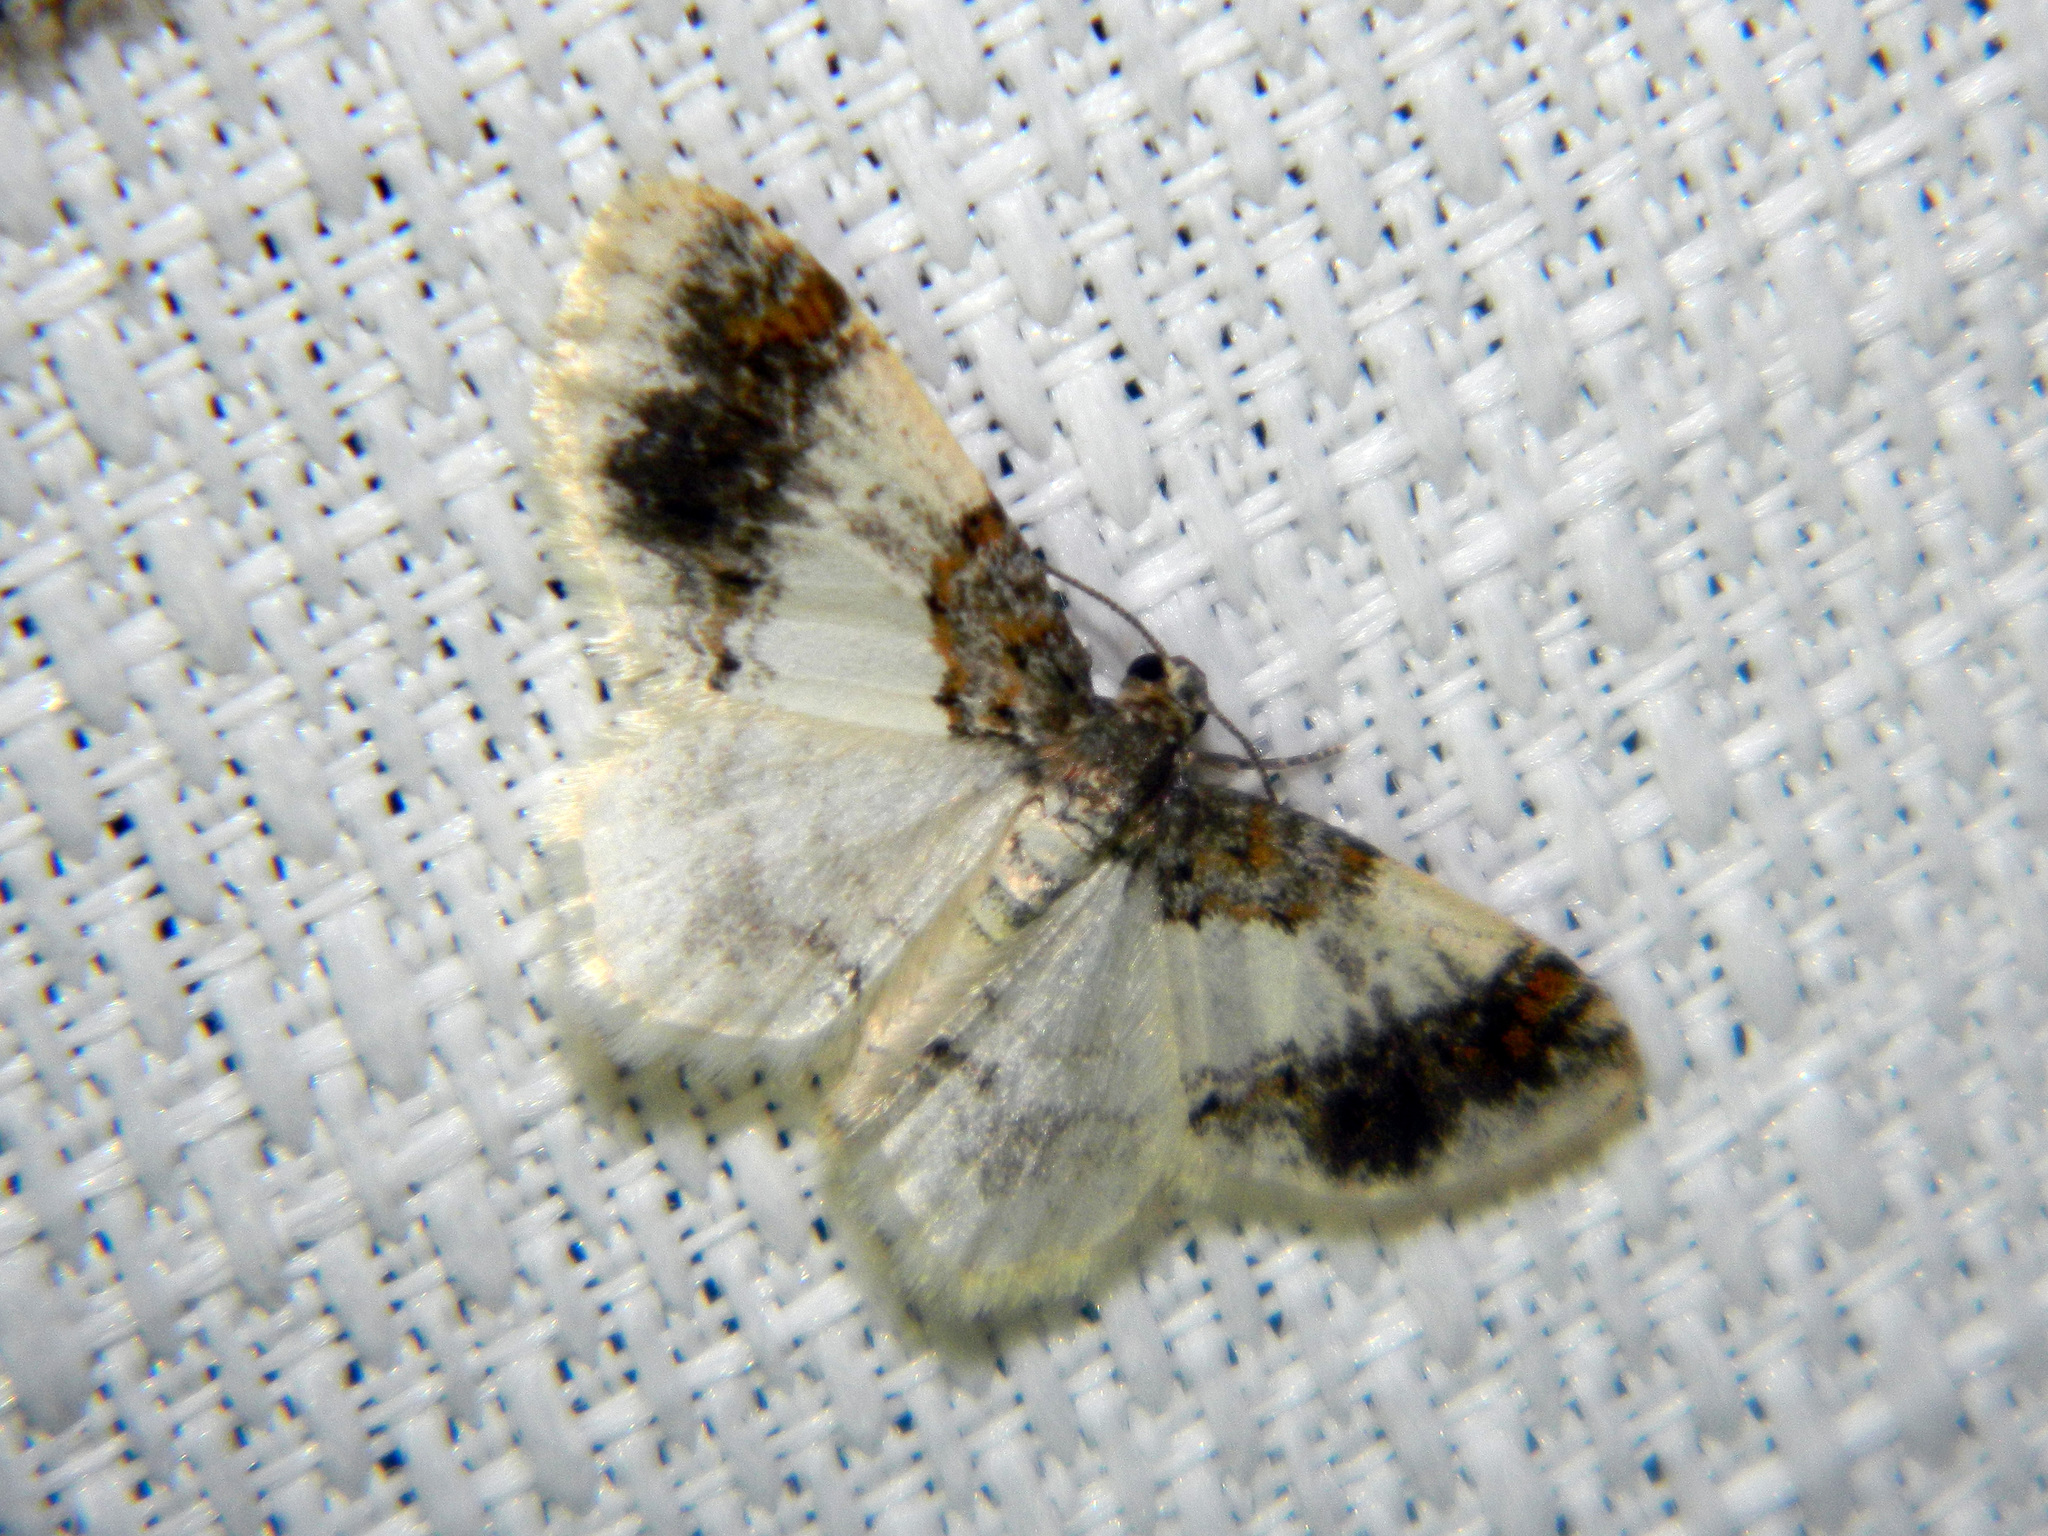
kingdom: Animalia
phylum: Arthropoda
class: Insecta
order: Lepidoptera
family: Geometridae
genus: Hydrelia
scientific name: Hydrelia condensata
